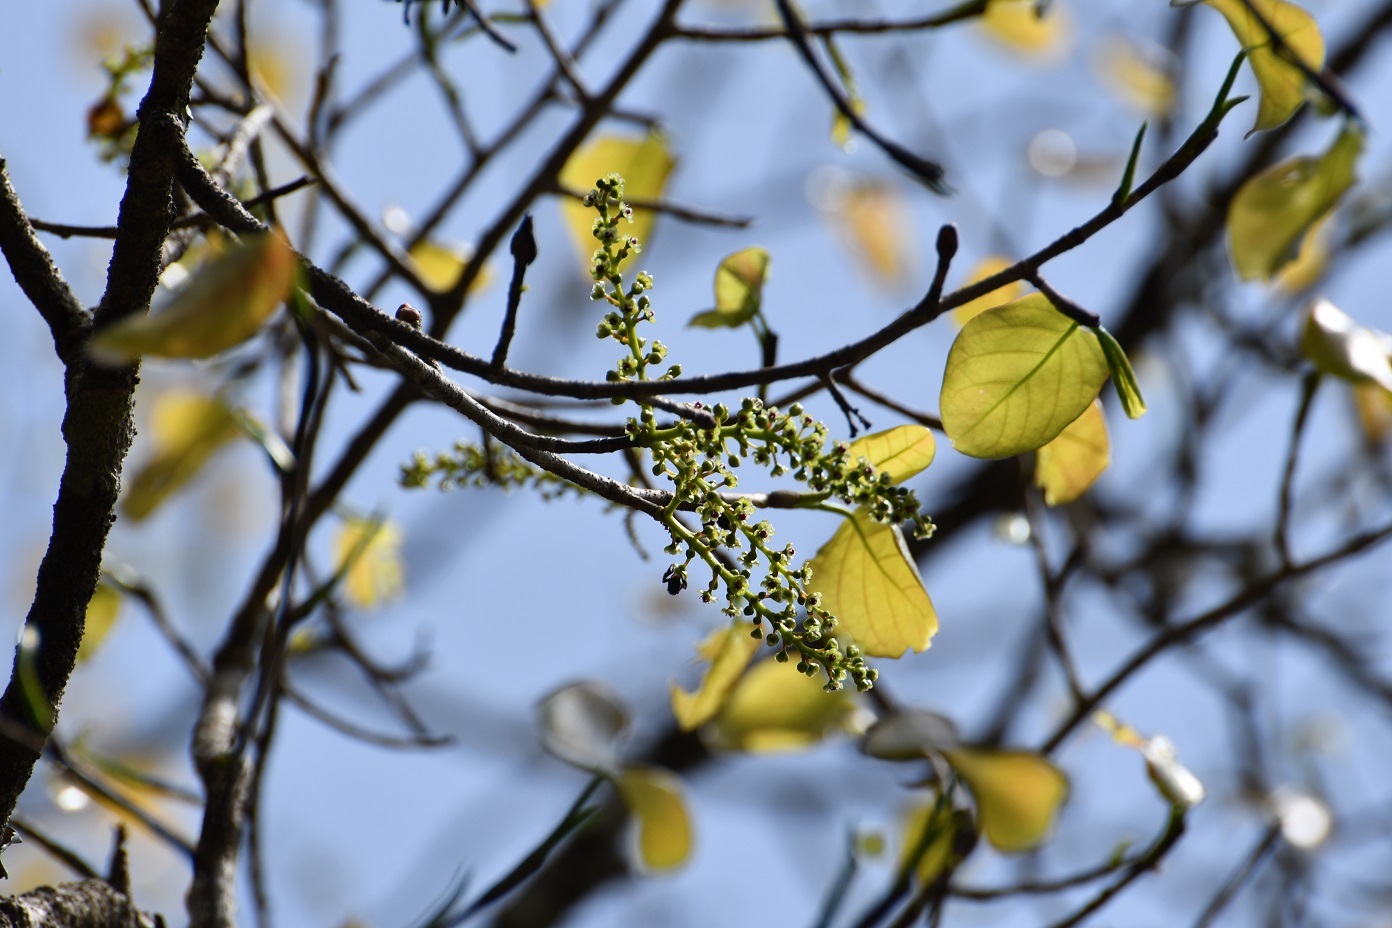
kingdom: Plantae
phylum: Tracheophyta
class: Magnoliopsida
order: Caryophyllales
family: Polygonaceae
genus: Coccoloba
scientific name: Coccoloba acapulcensis
